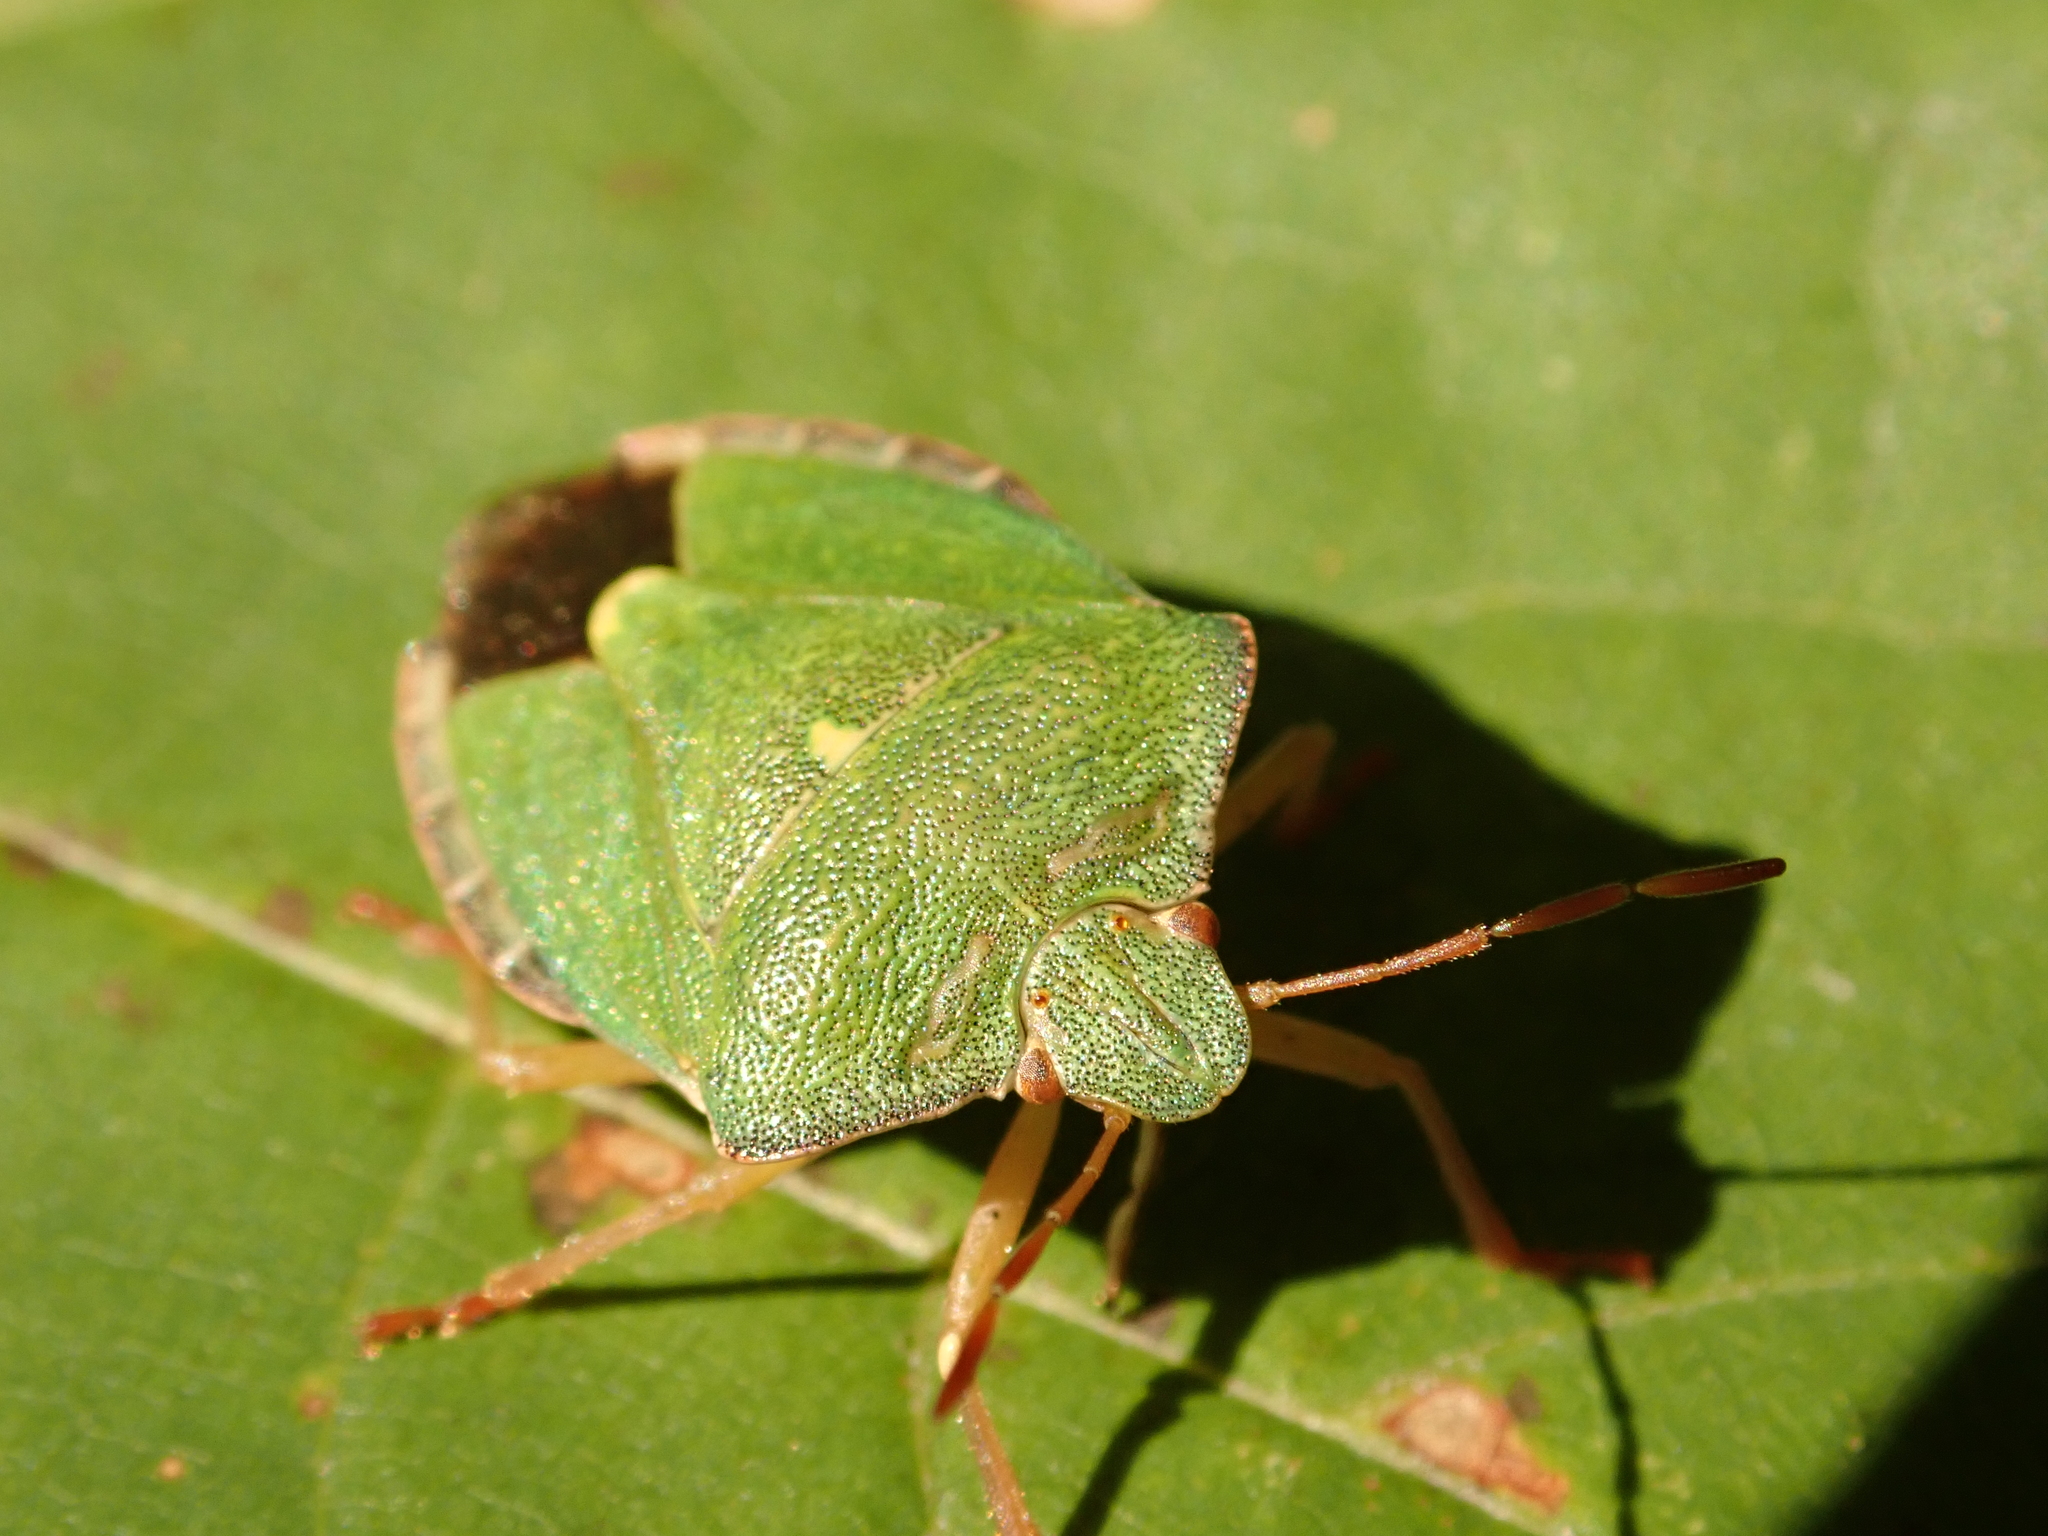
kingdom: Animalia
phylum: Arthropoda
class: Insecta
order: Hemiptera
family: Pentatomidae
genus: Palomena
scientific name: Palomena prasina
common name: Green shieldbug
